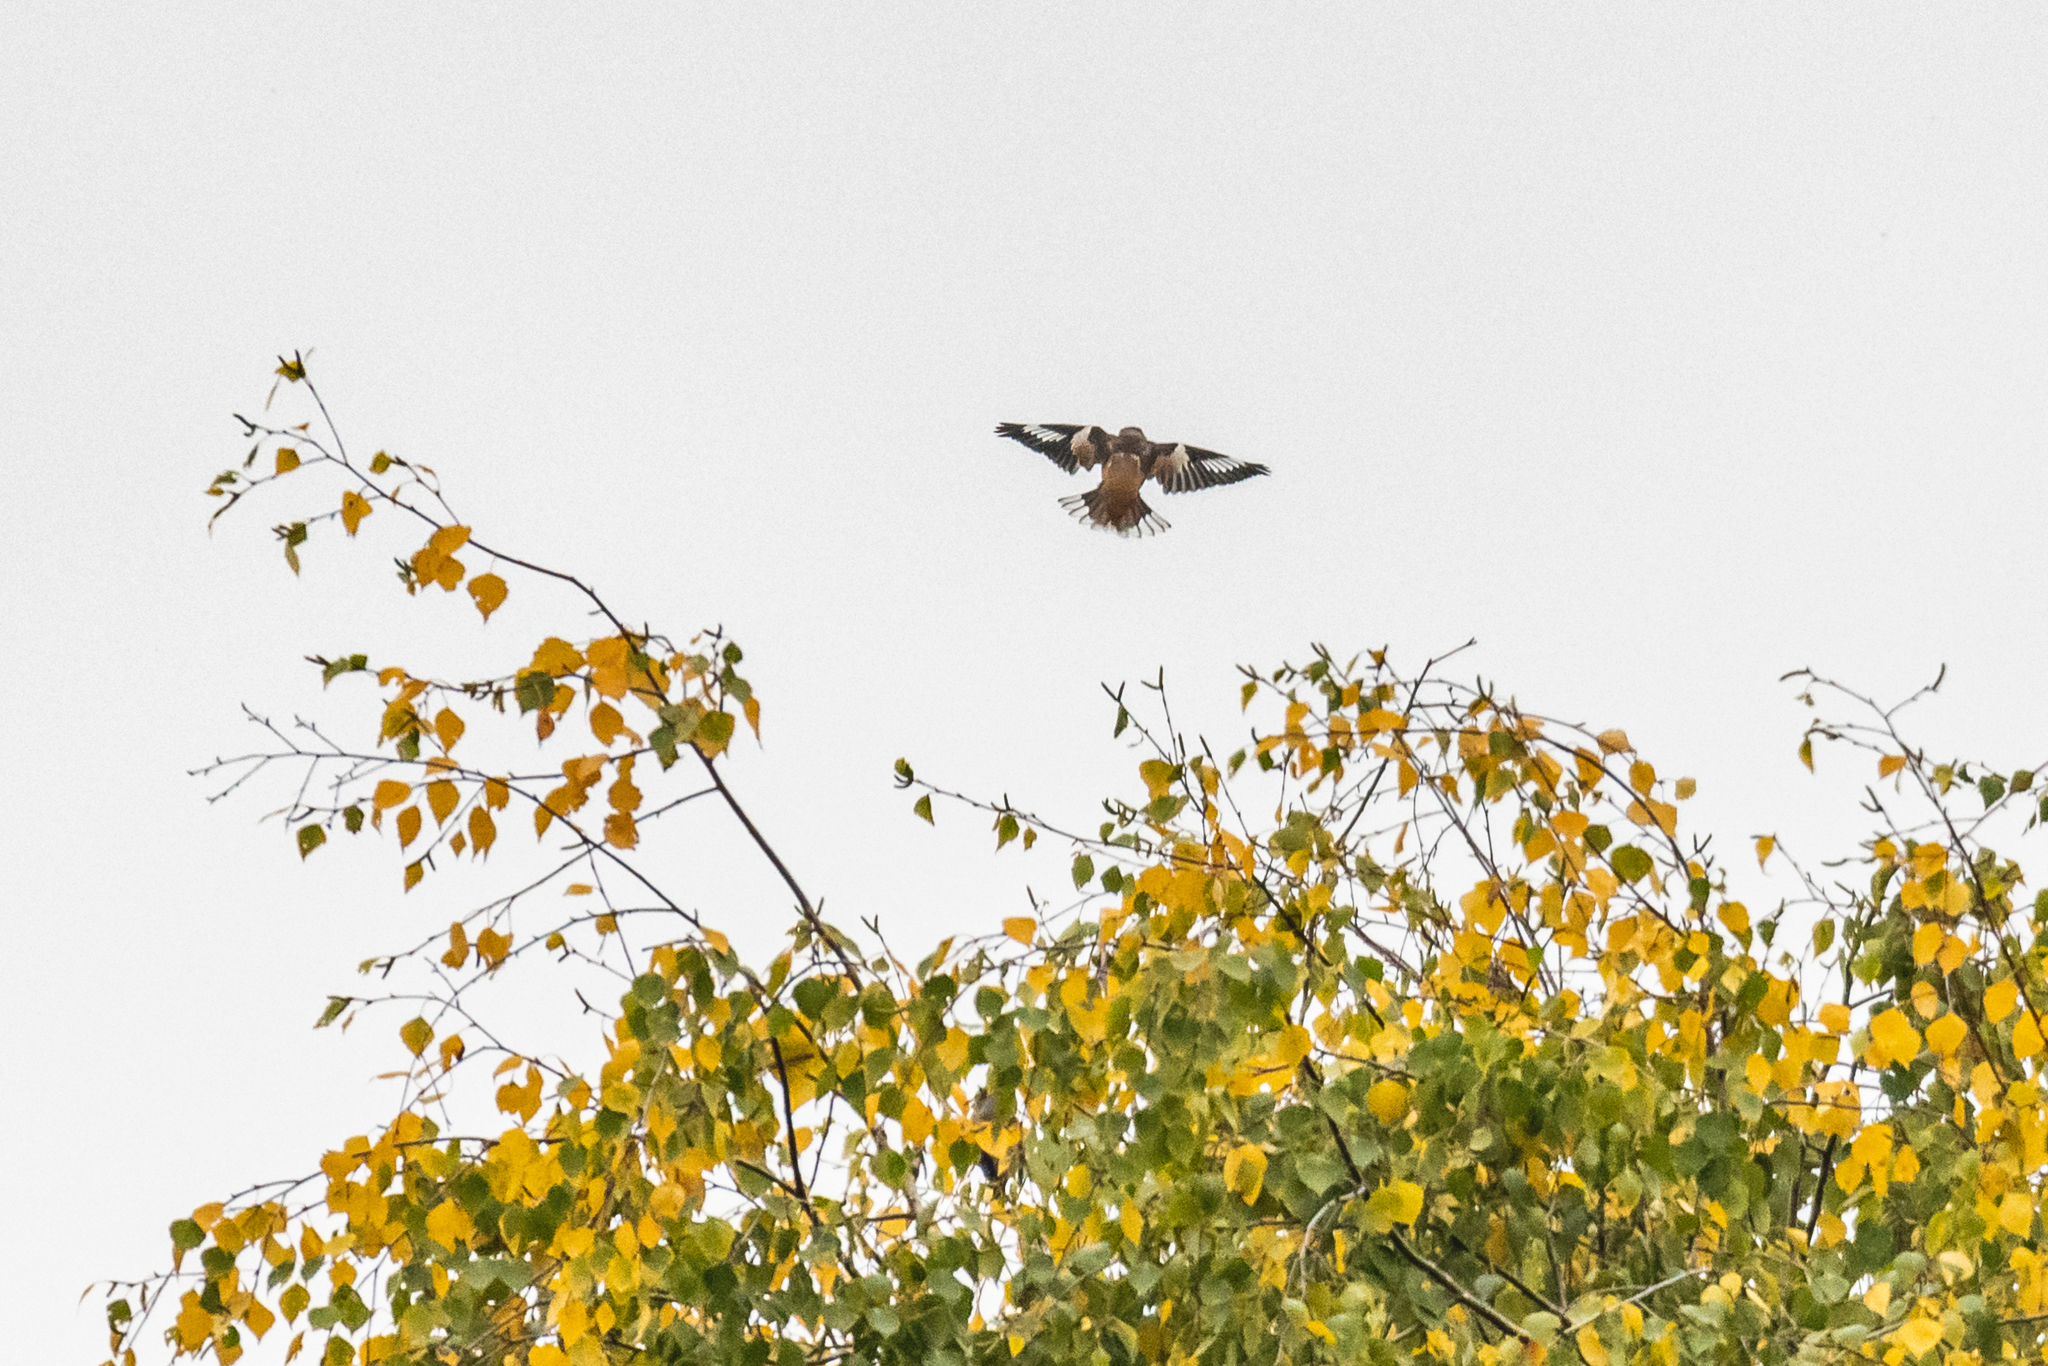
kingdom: Animalia
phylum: Chordata
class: Aves
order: Passeriformes
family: Fringillidae
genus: Coccothraustes
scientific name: Coccothraustes coccothraustes
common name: Hawfinch
